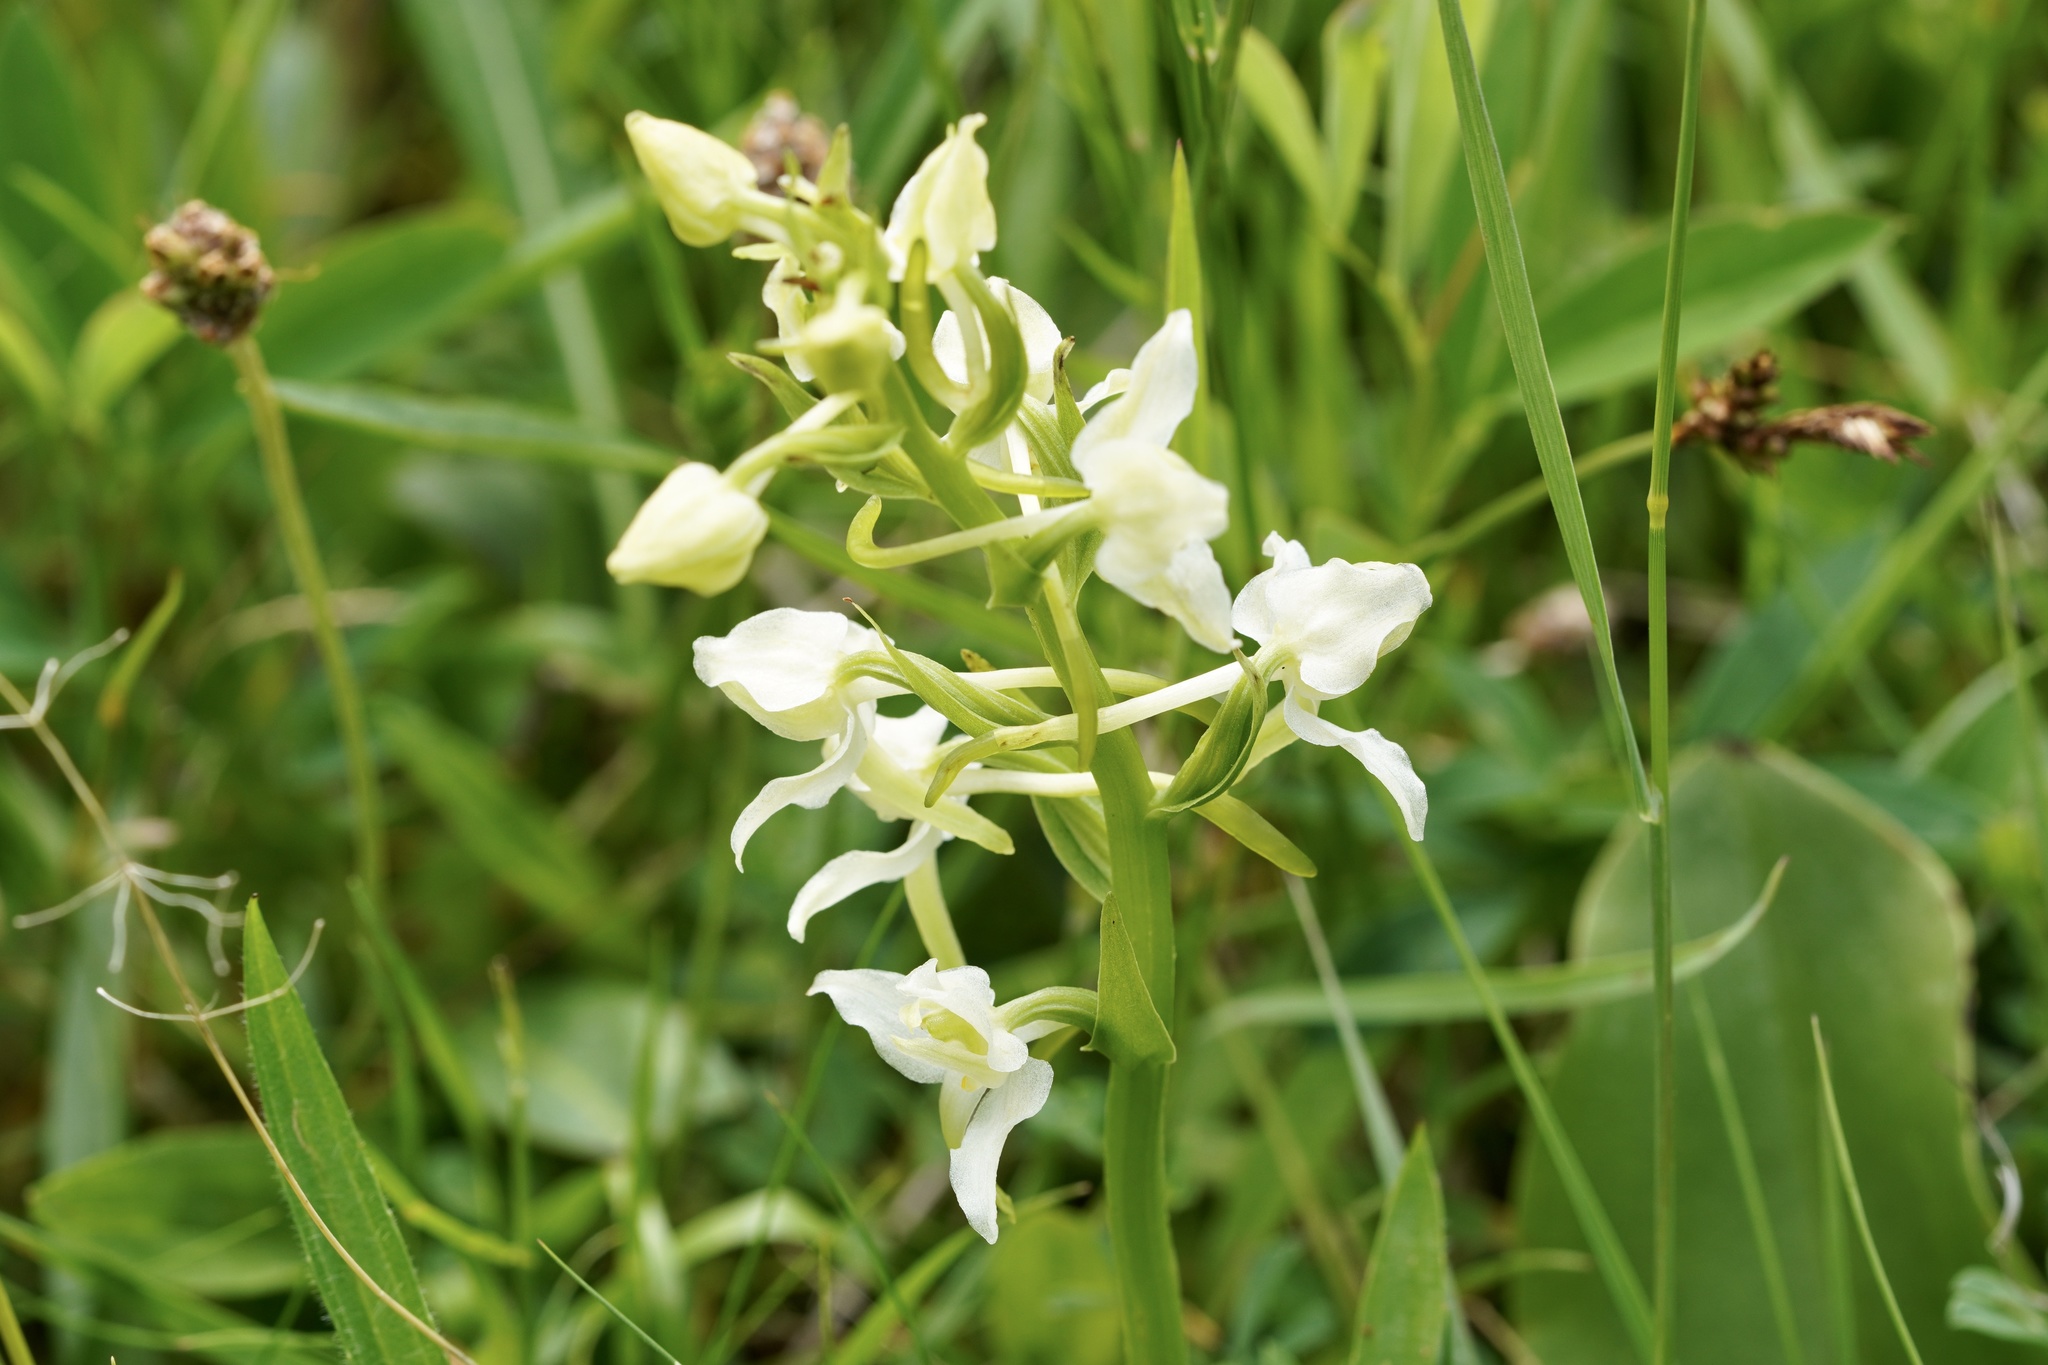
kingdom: Plantae
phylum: Tracheophyta
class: Liliopsida
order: Asparagales
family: Orchidaceae
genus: Platanthera
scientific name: Platanthera chlorantha
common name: Greater butterfly-orchid
